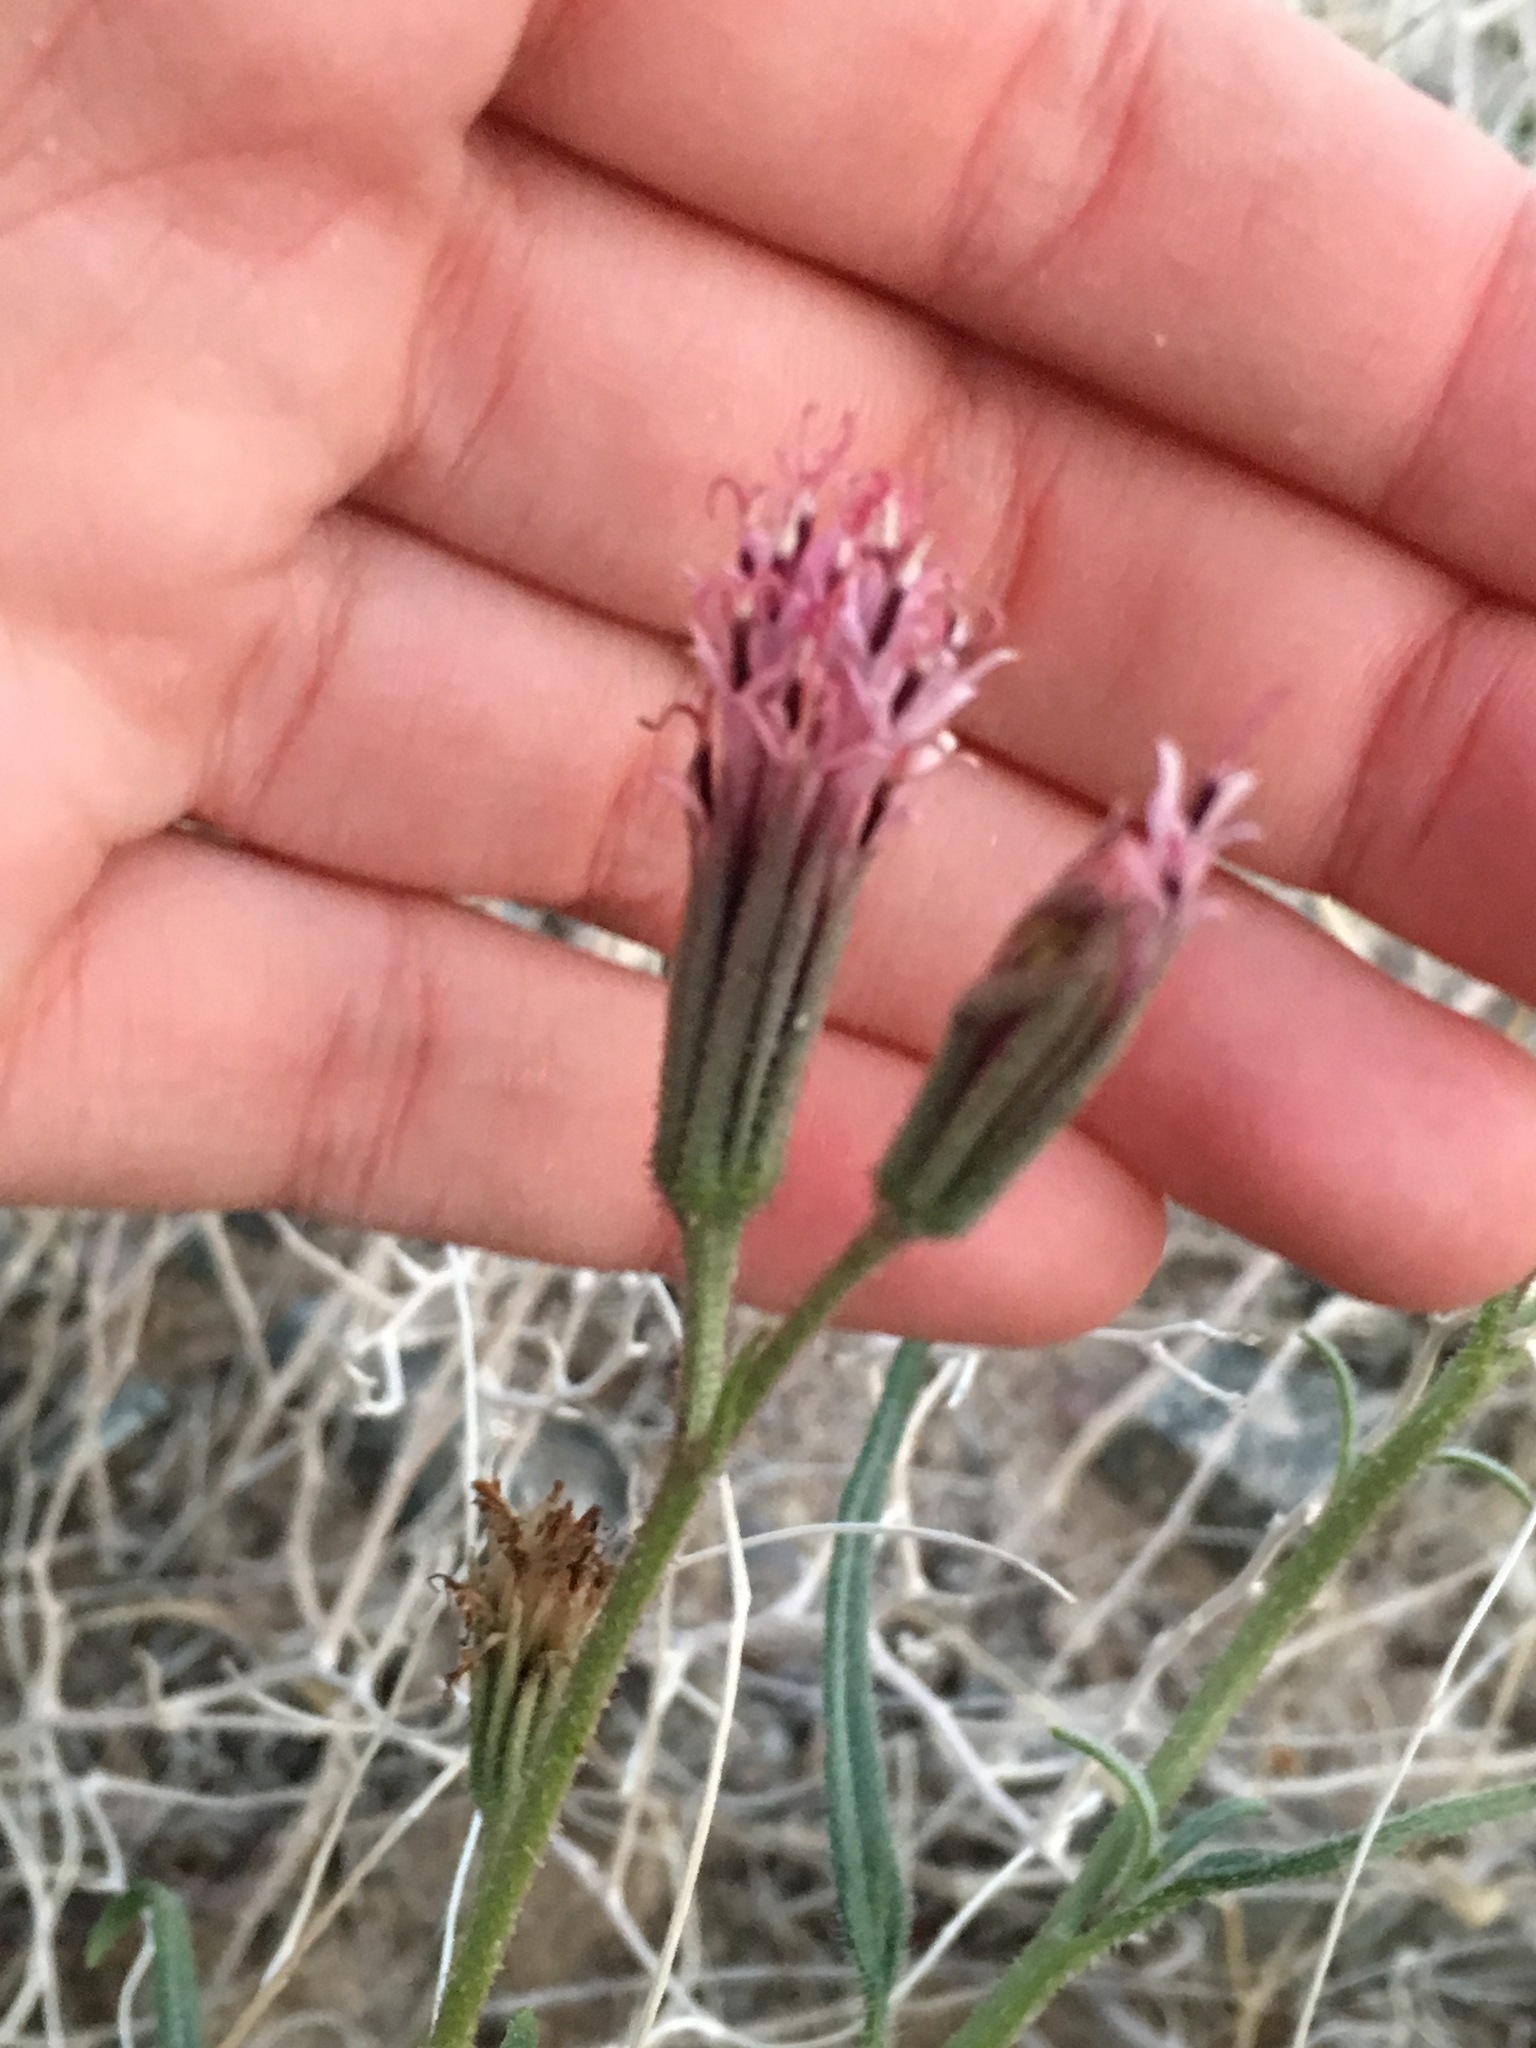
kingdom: Plantae
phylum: Tracheophyta
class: Magnoliopsida
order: Asterales
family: Asteraceae
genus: Palafoxia
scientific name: Palafoxia arida
